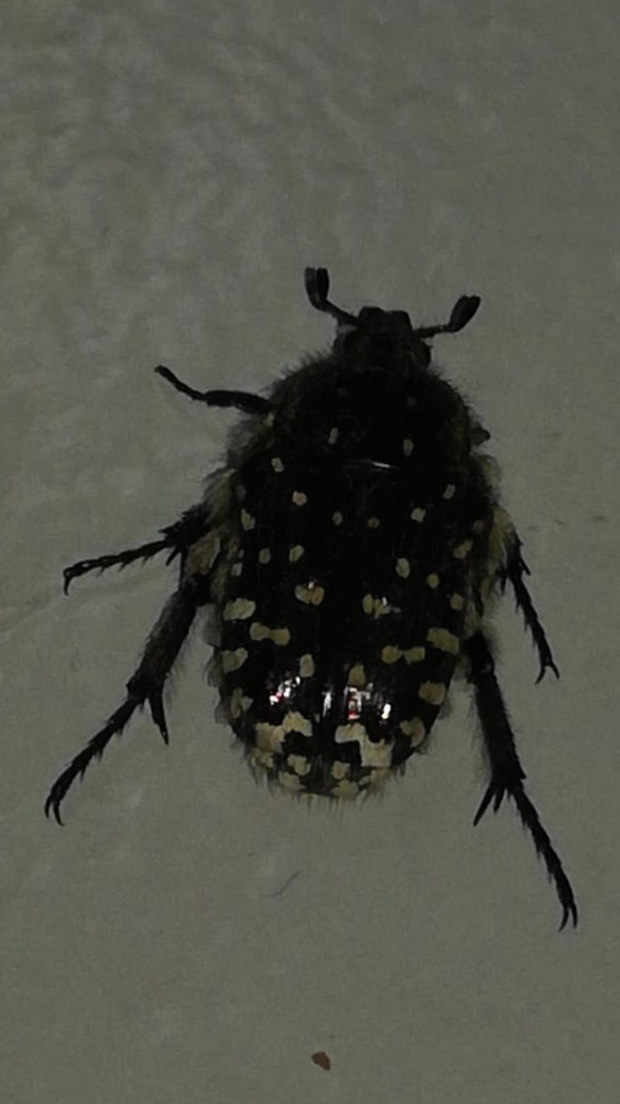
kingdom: Animalia
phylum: Arthropoda
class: Insecta
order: Coleoptera
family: Scarabaeidae
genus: Oxythyrea
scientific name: Oxythyrea funesta
